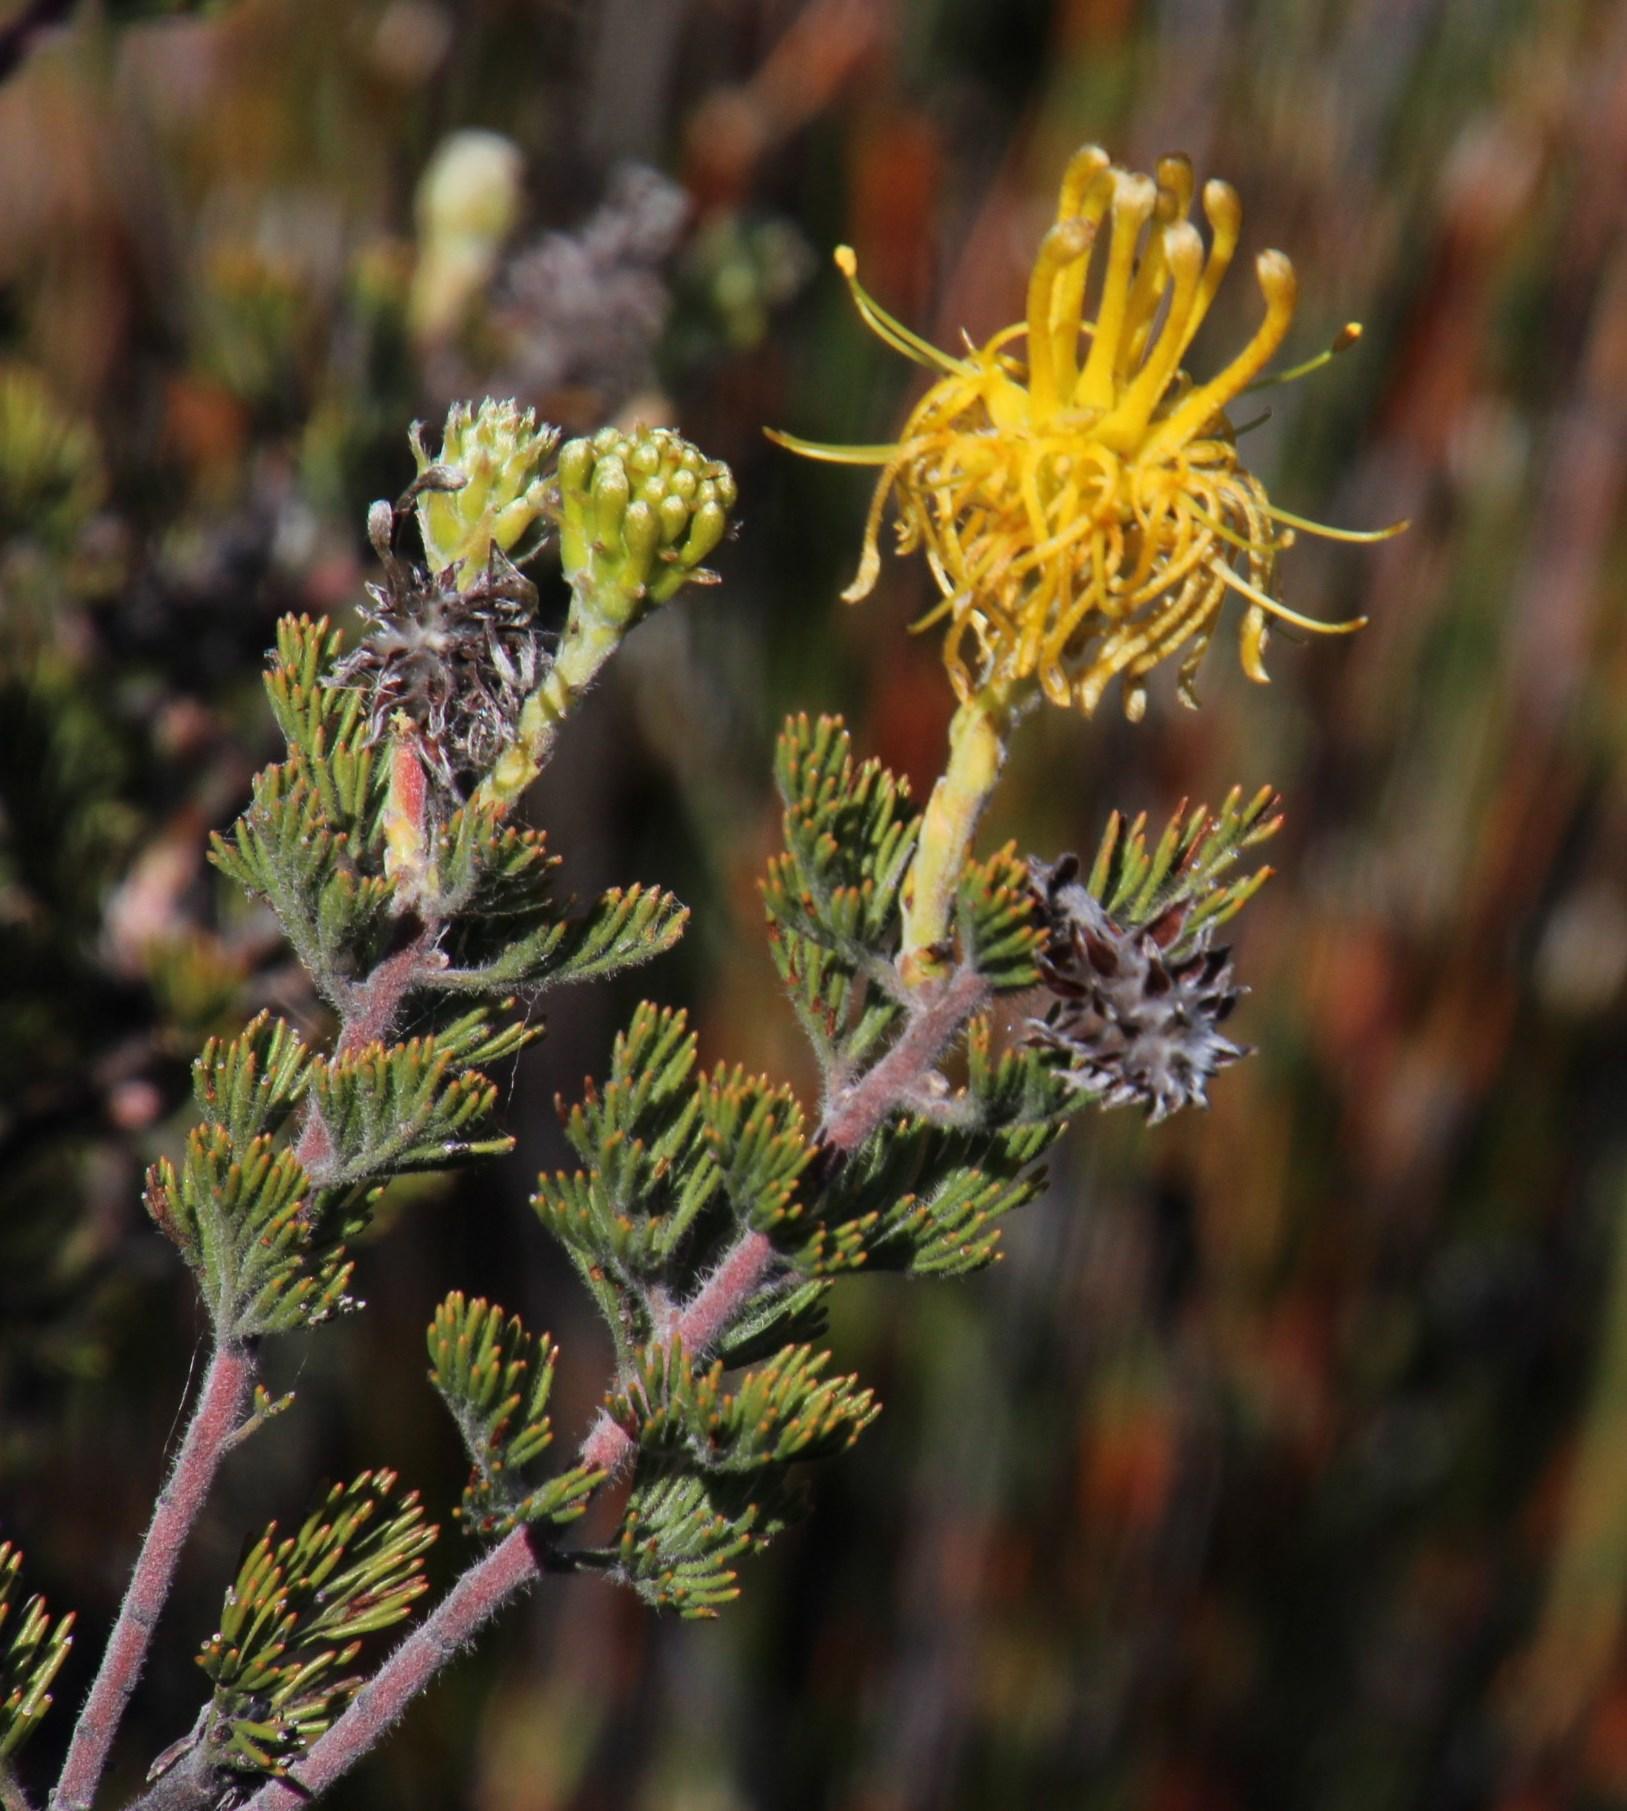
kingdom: Plantae
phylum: Tracheophyta
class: Magnoliopsida
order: Proteales
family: Proteaceae
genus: Serruria
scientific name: Serruria flava
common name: Spiderhead
